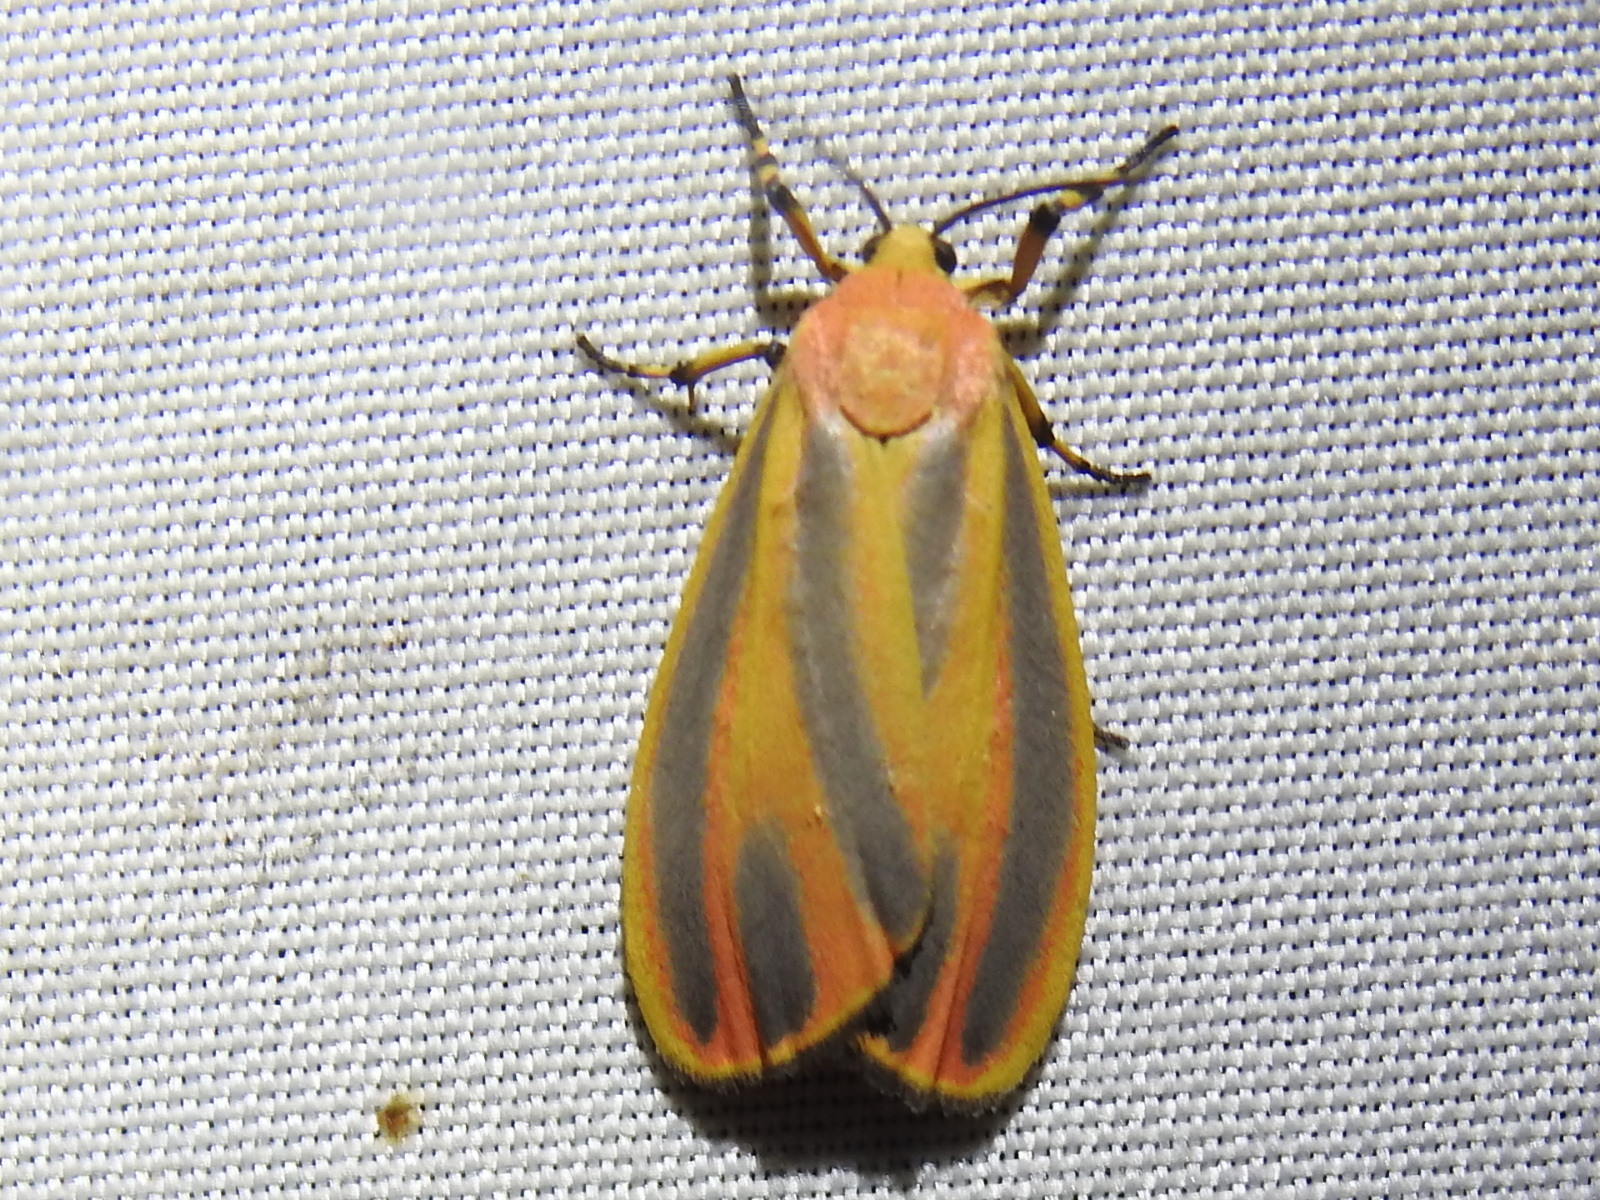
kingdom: Animalia
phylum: Arthropoda
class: Insecta
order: Lepidoptera
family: Erebidae
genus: Hypoprepia
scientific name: Hypoprepia fucosa
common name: Painted lichen moth
